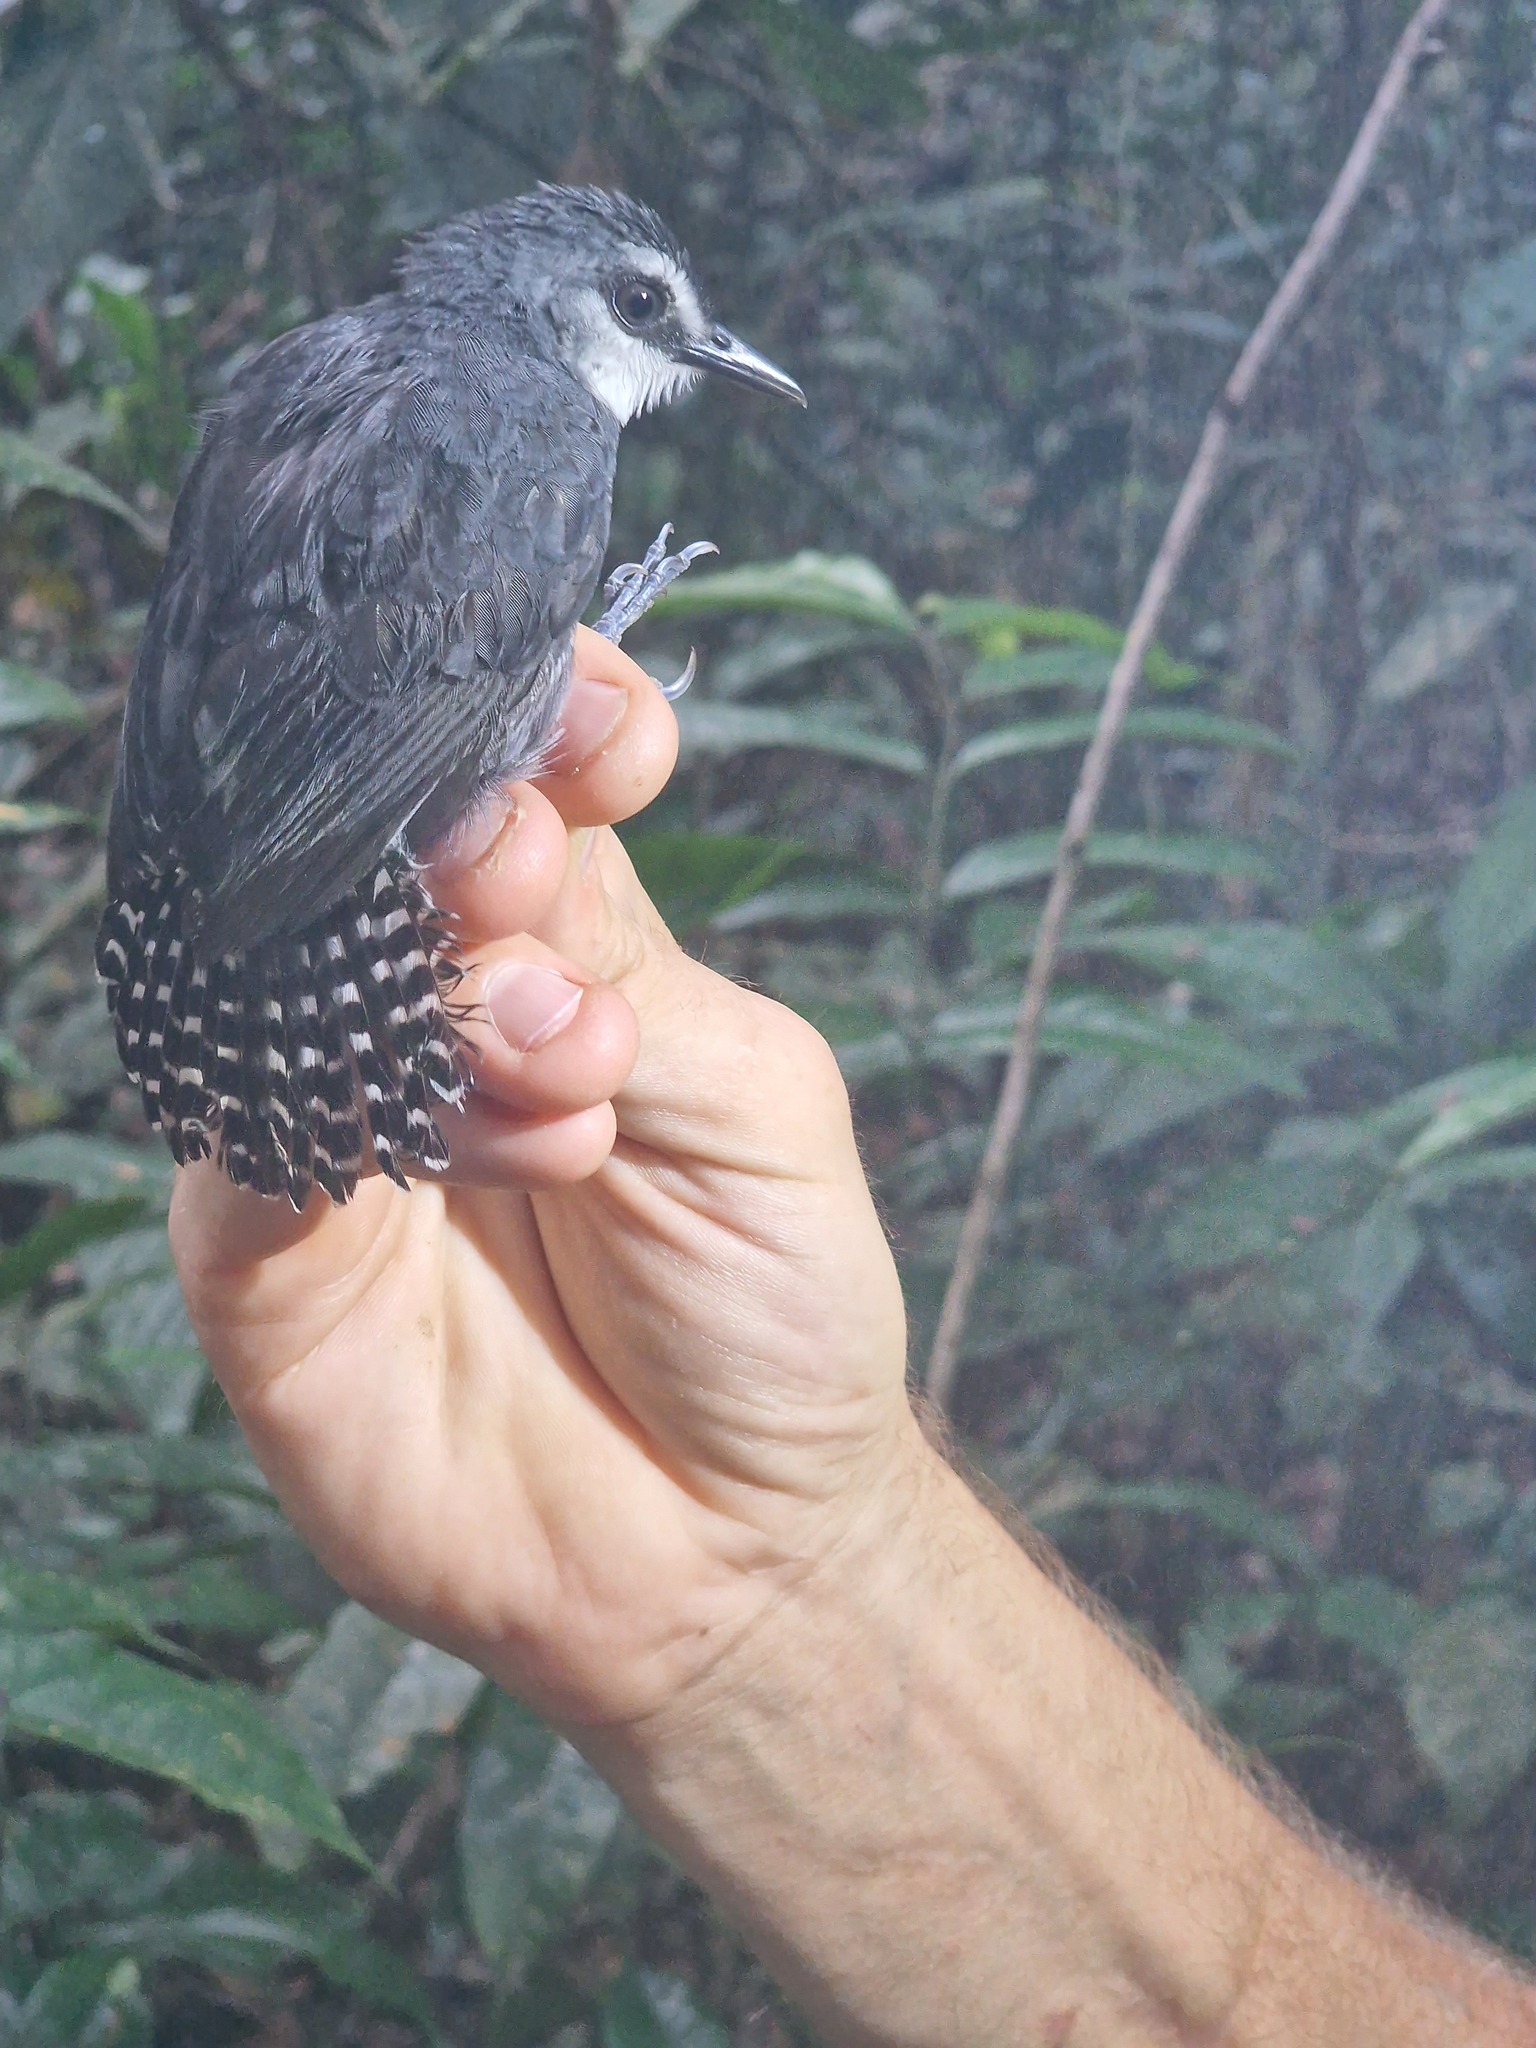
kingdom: Animalia
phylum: Chordata
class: Aves
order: Passeriformes
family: Thamnophilidae
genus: Gymnopithys
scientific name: Gymnopithys salvini
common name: White-throated antbird
